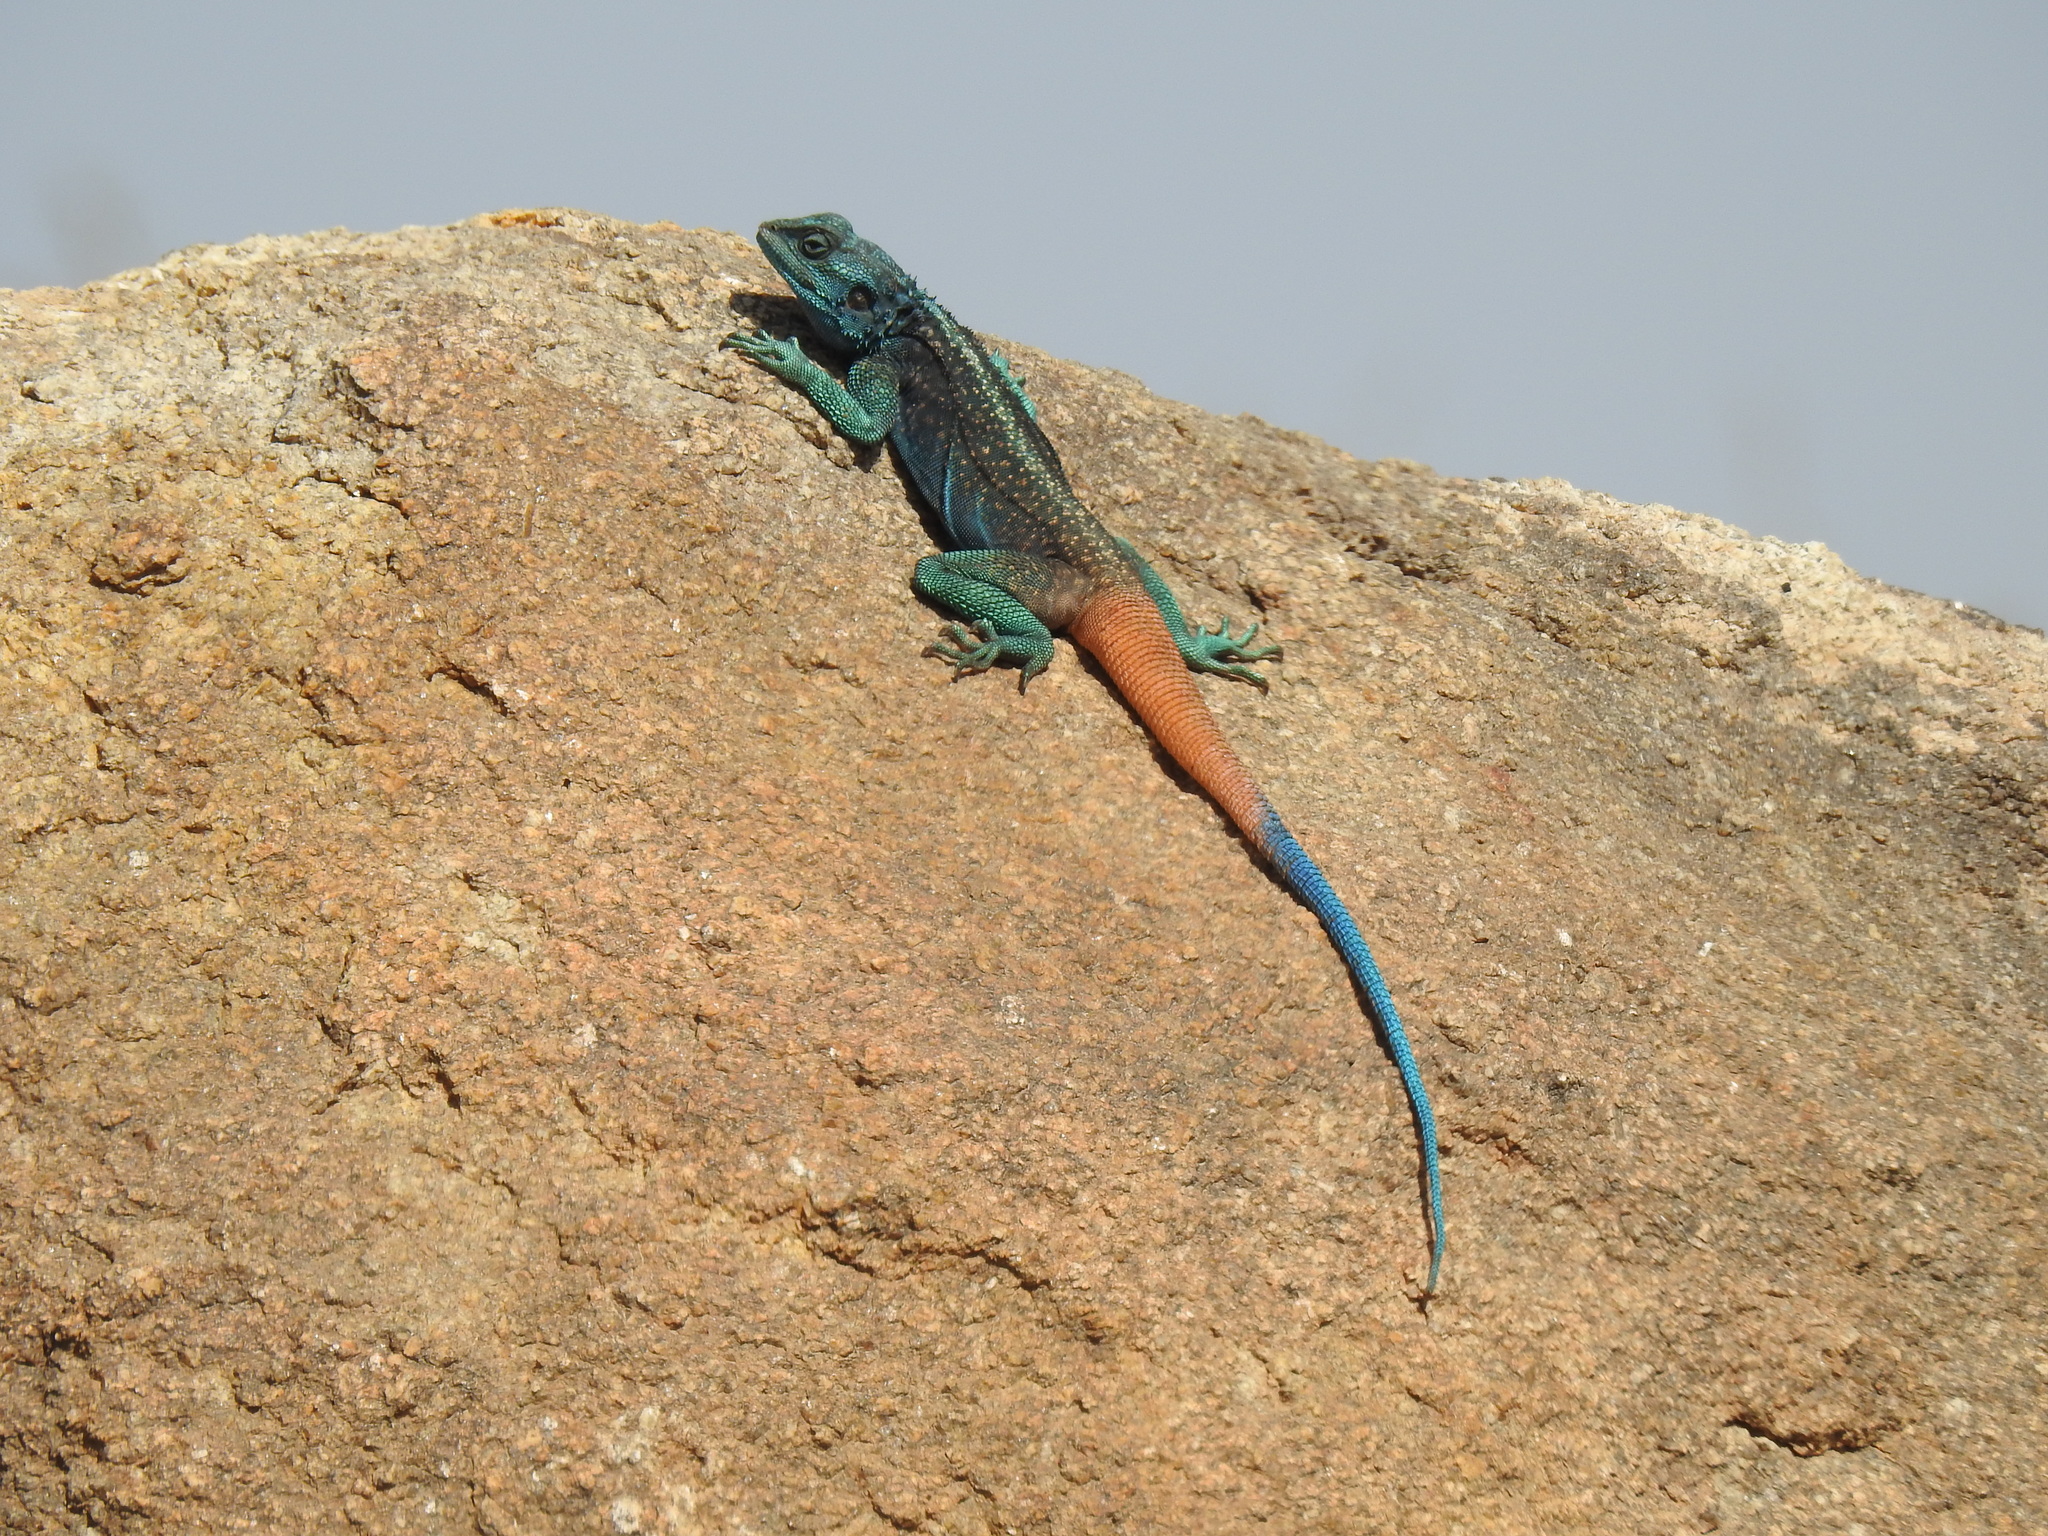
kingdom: Animalia
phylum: Chordata
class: Squamata
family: Agamidae
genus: Acanthocercus
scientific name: Acanthocercus adramitanus
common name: Anderson's rock agama
